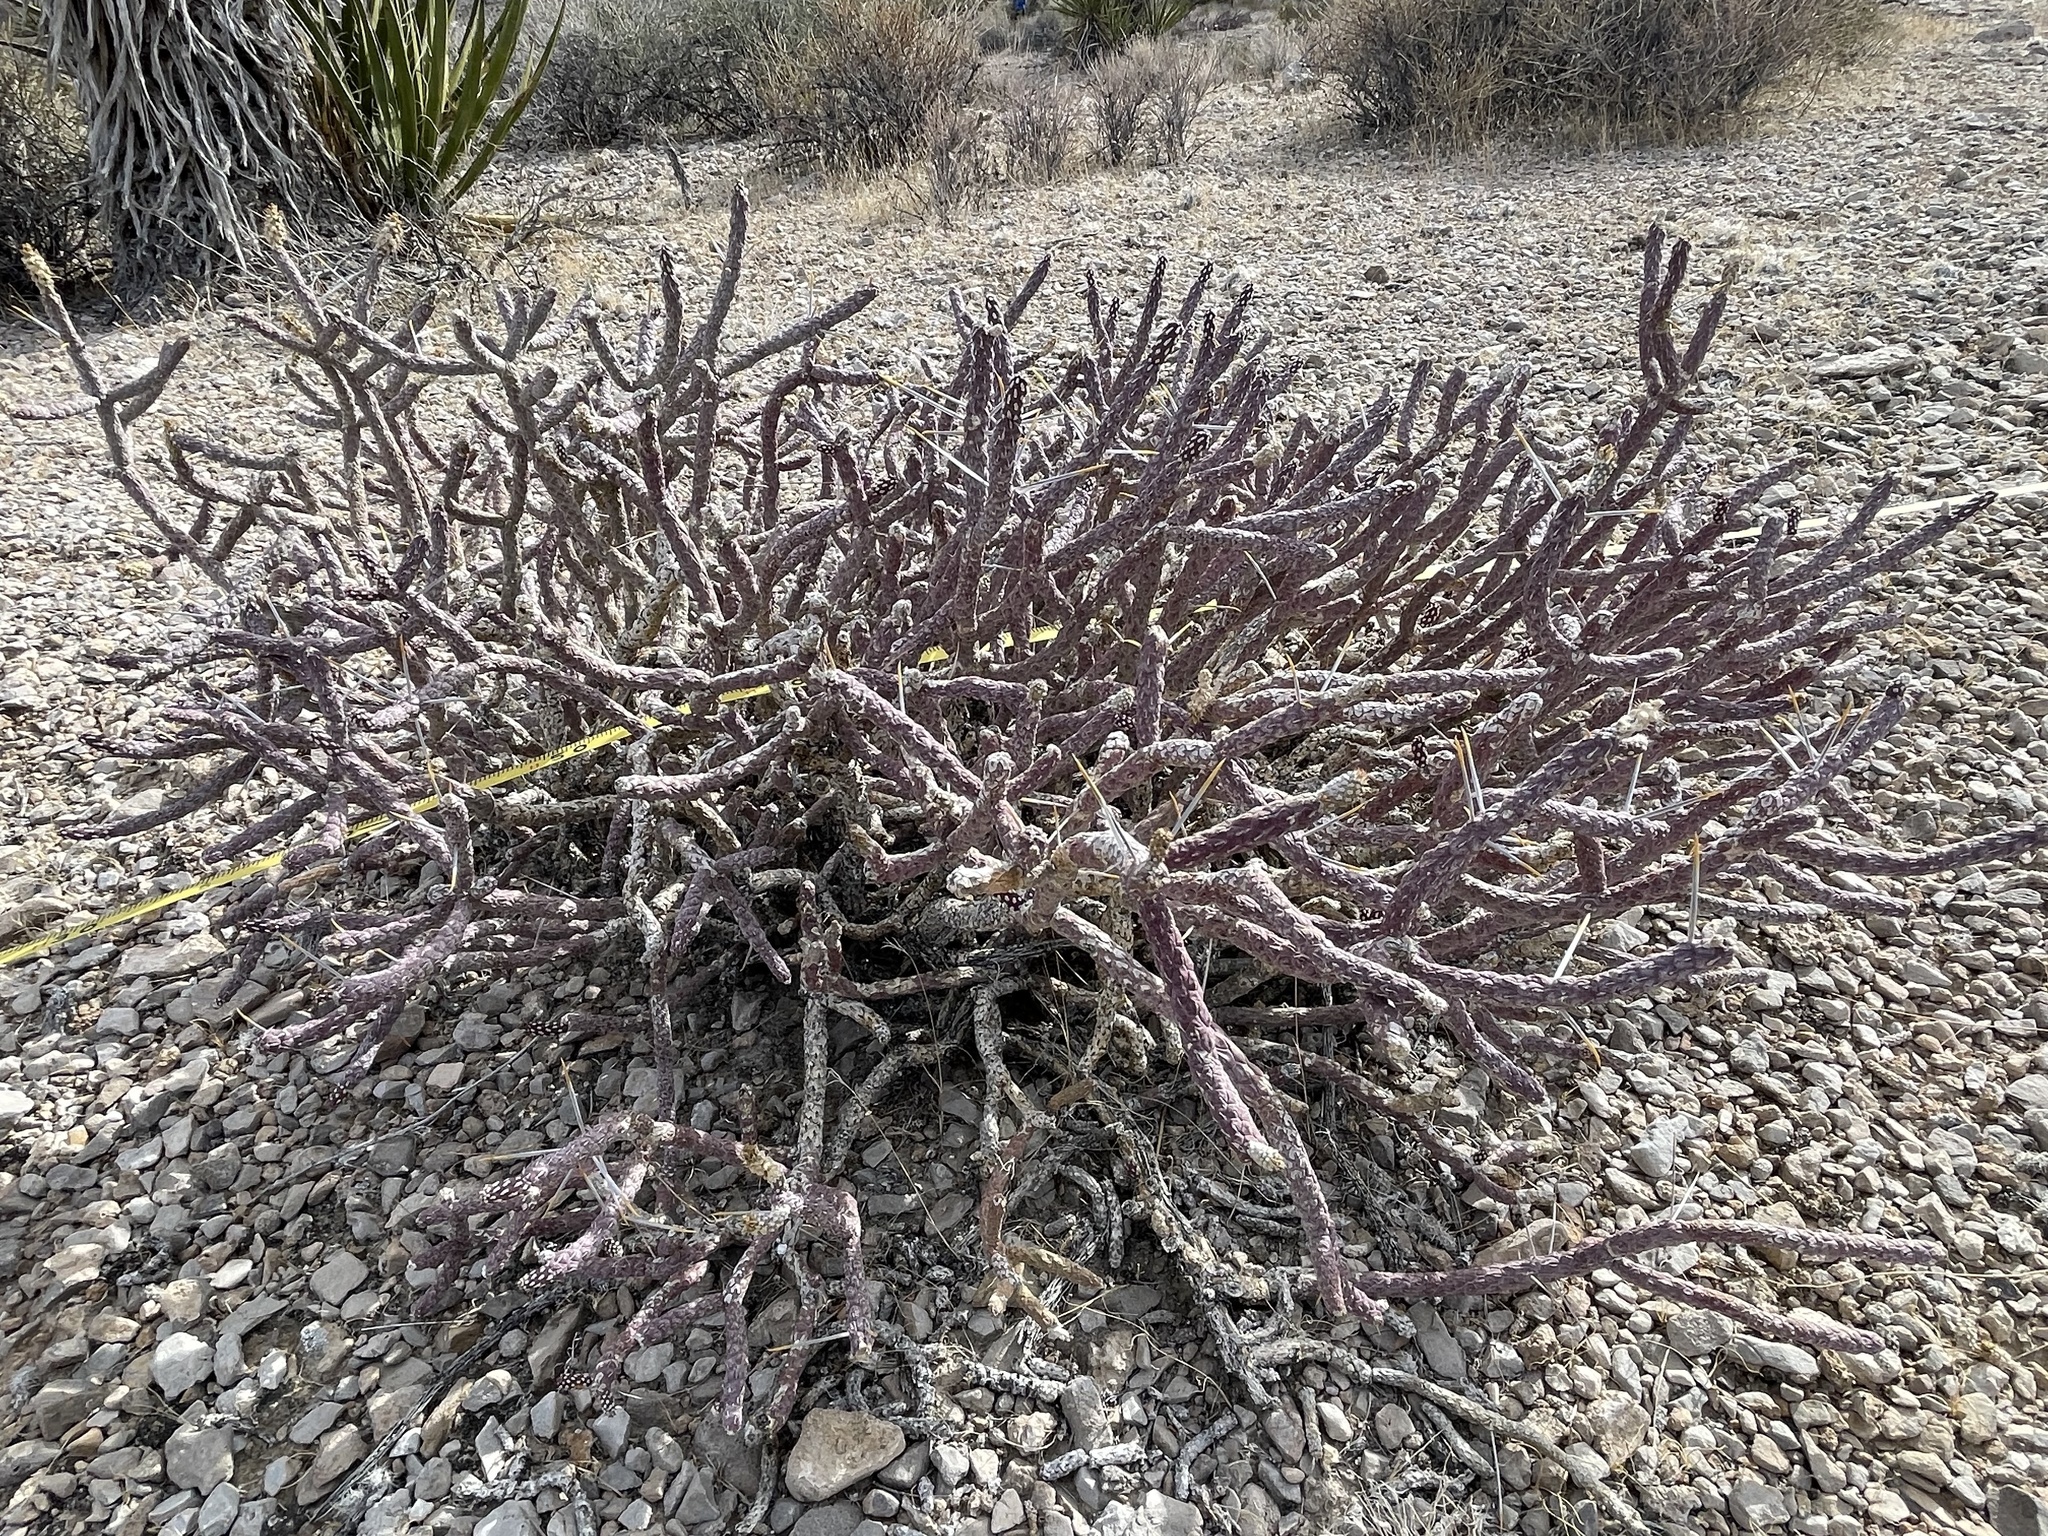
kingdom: Plantae
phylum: Tracheophyta
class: Magnoliopsida
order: Caryophyllales
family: Cactaceae
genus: Cylindropuntia
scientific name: Cylindropuntia ramosissima
